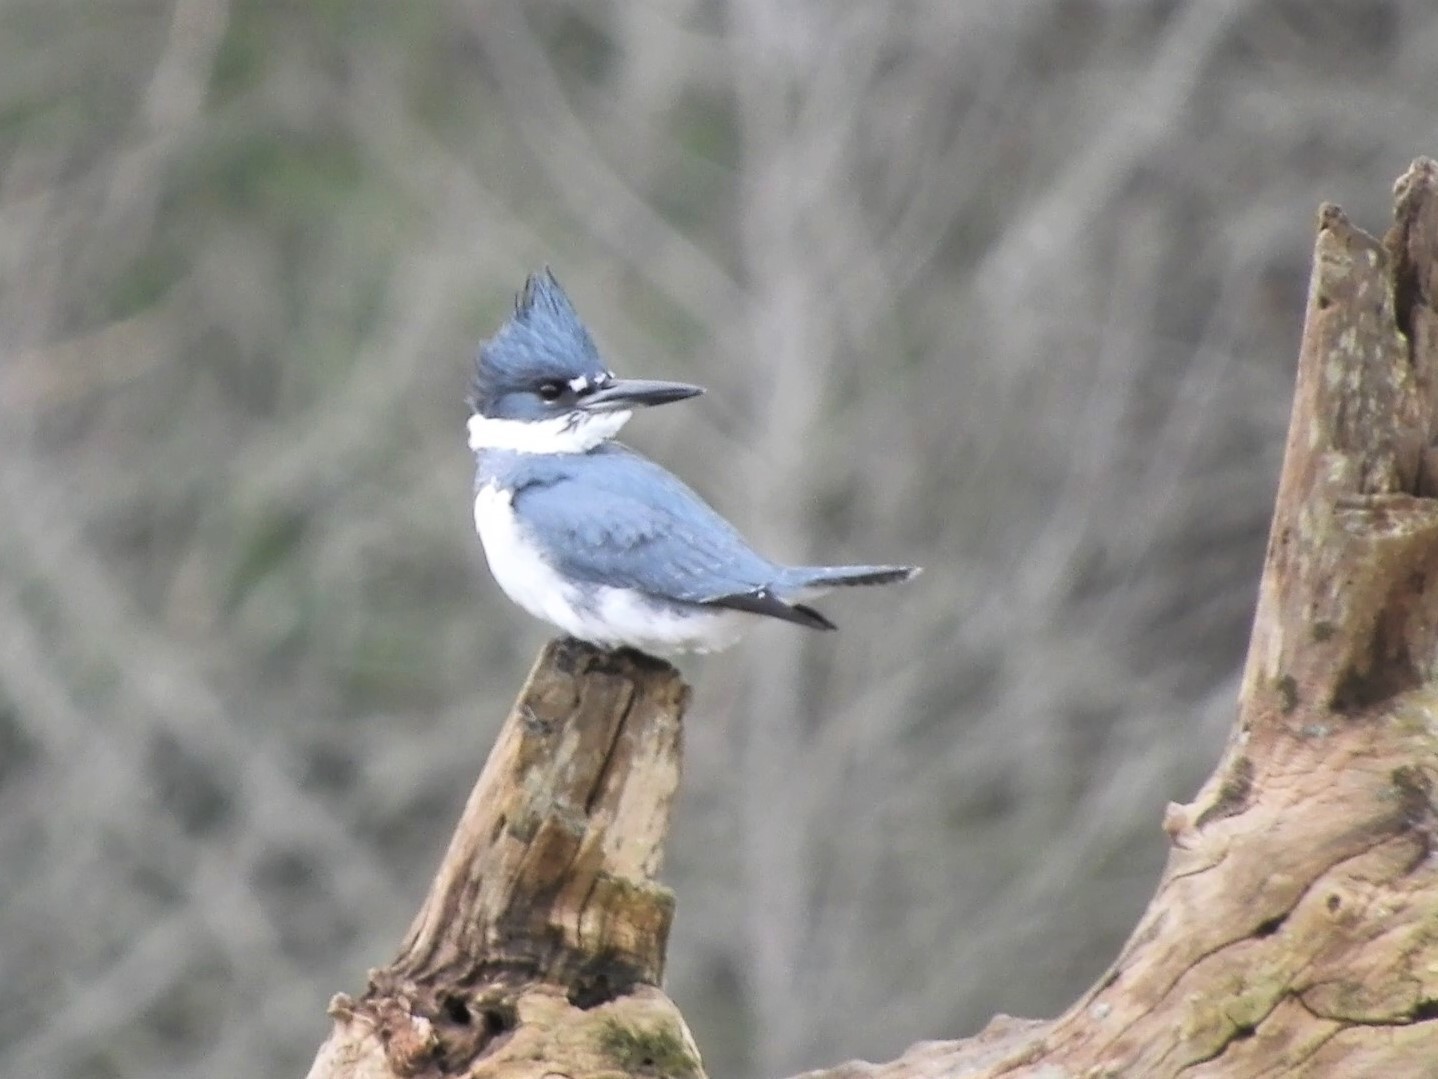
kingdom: Animalia
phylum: Chordata
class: Aves
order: Coraciiformes
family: Alcedinidae
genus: Megaceryle
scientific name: Megaceryle alcyon
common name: Belted kingfisher
